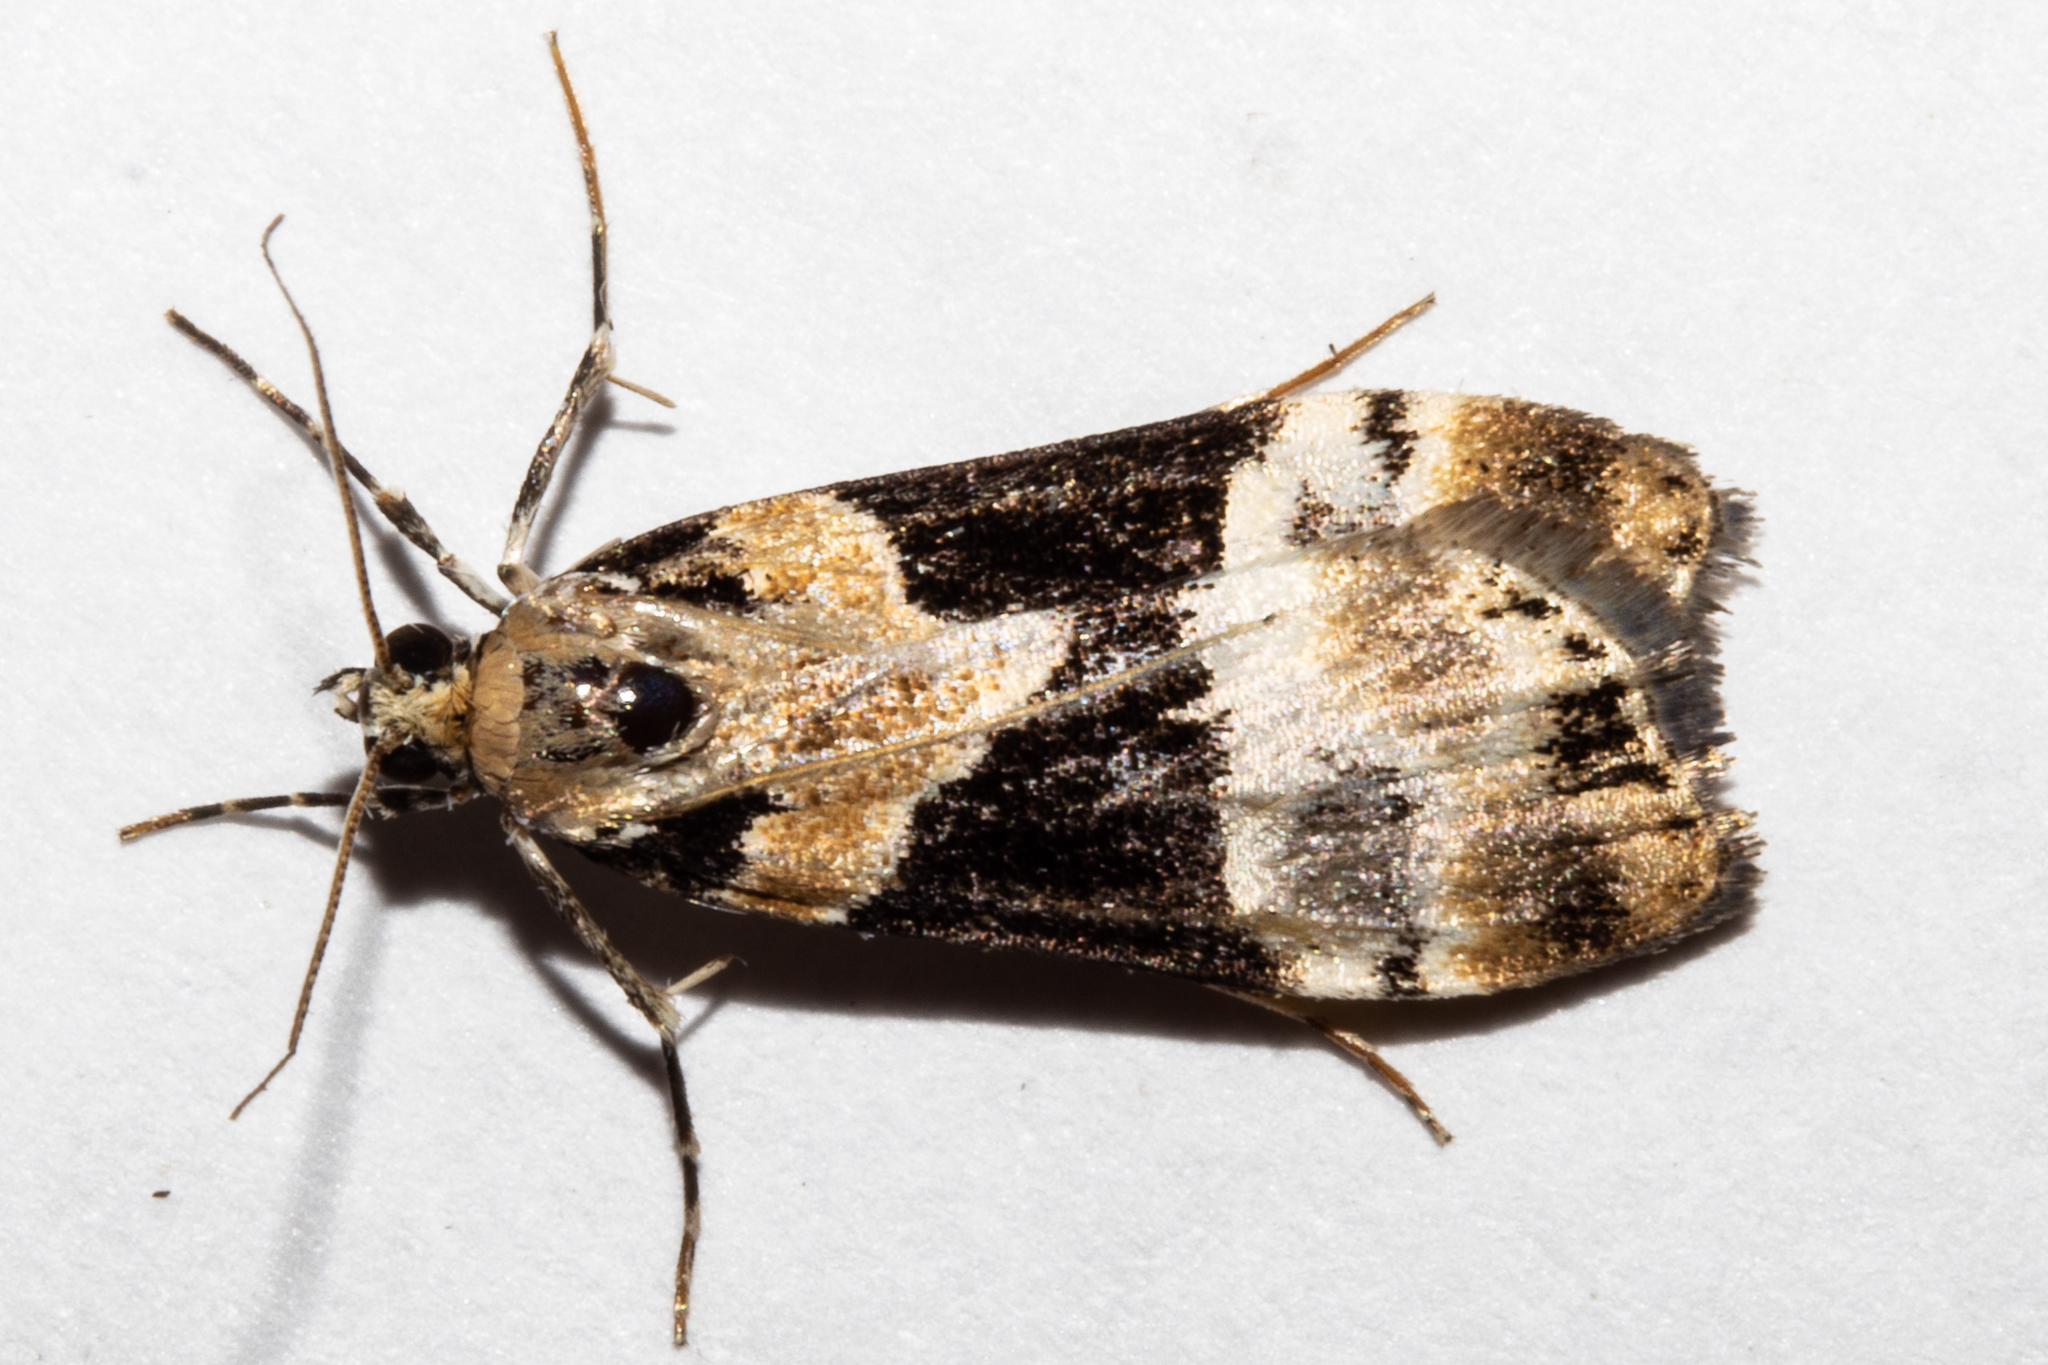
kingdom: Animalia
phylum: Arthropoda
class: Insecta
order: Lepidoptera
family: Crambidae
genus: Eudonia
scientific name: Eudonia aspidota
